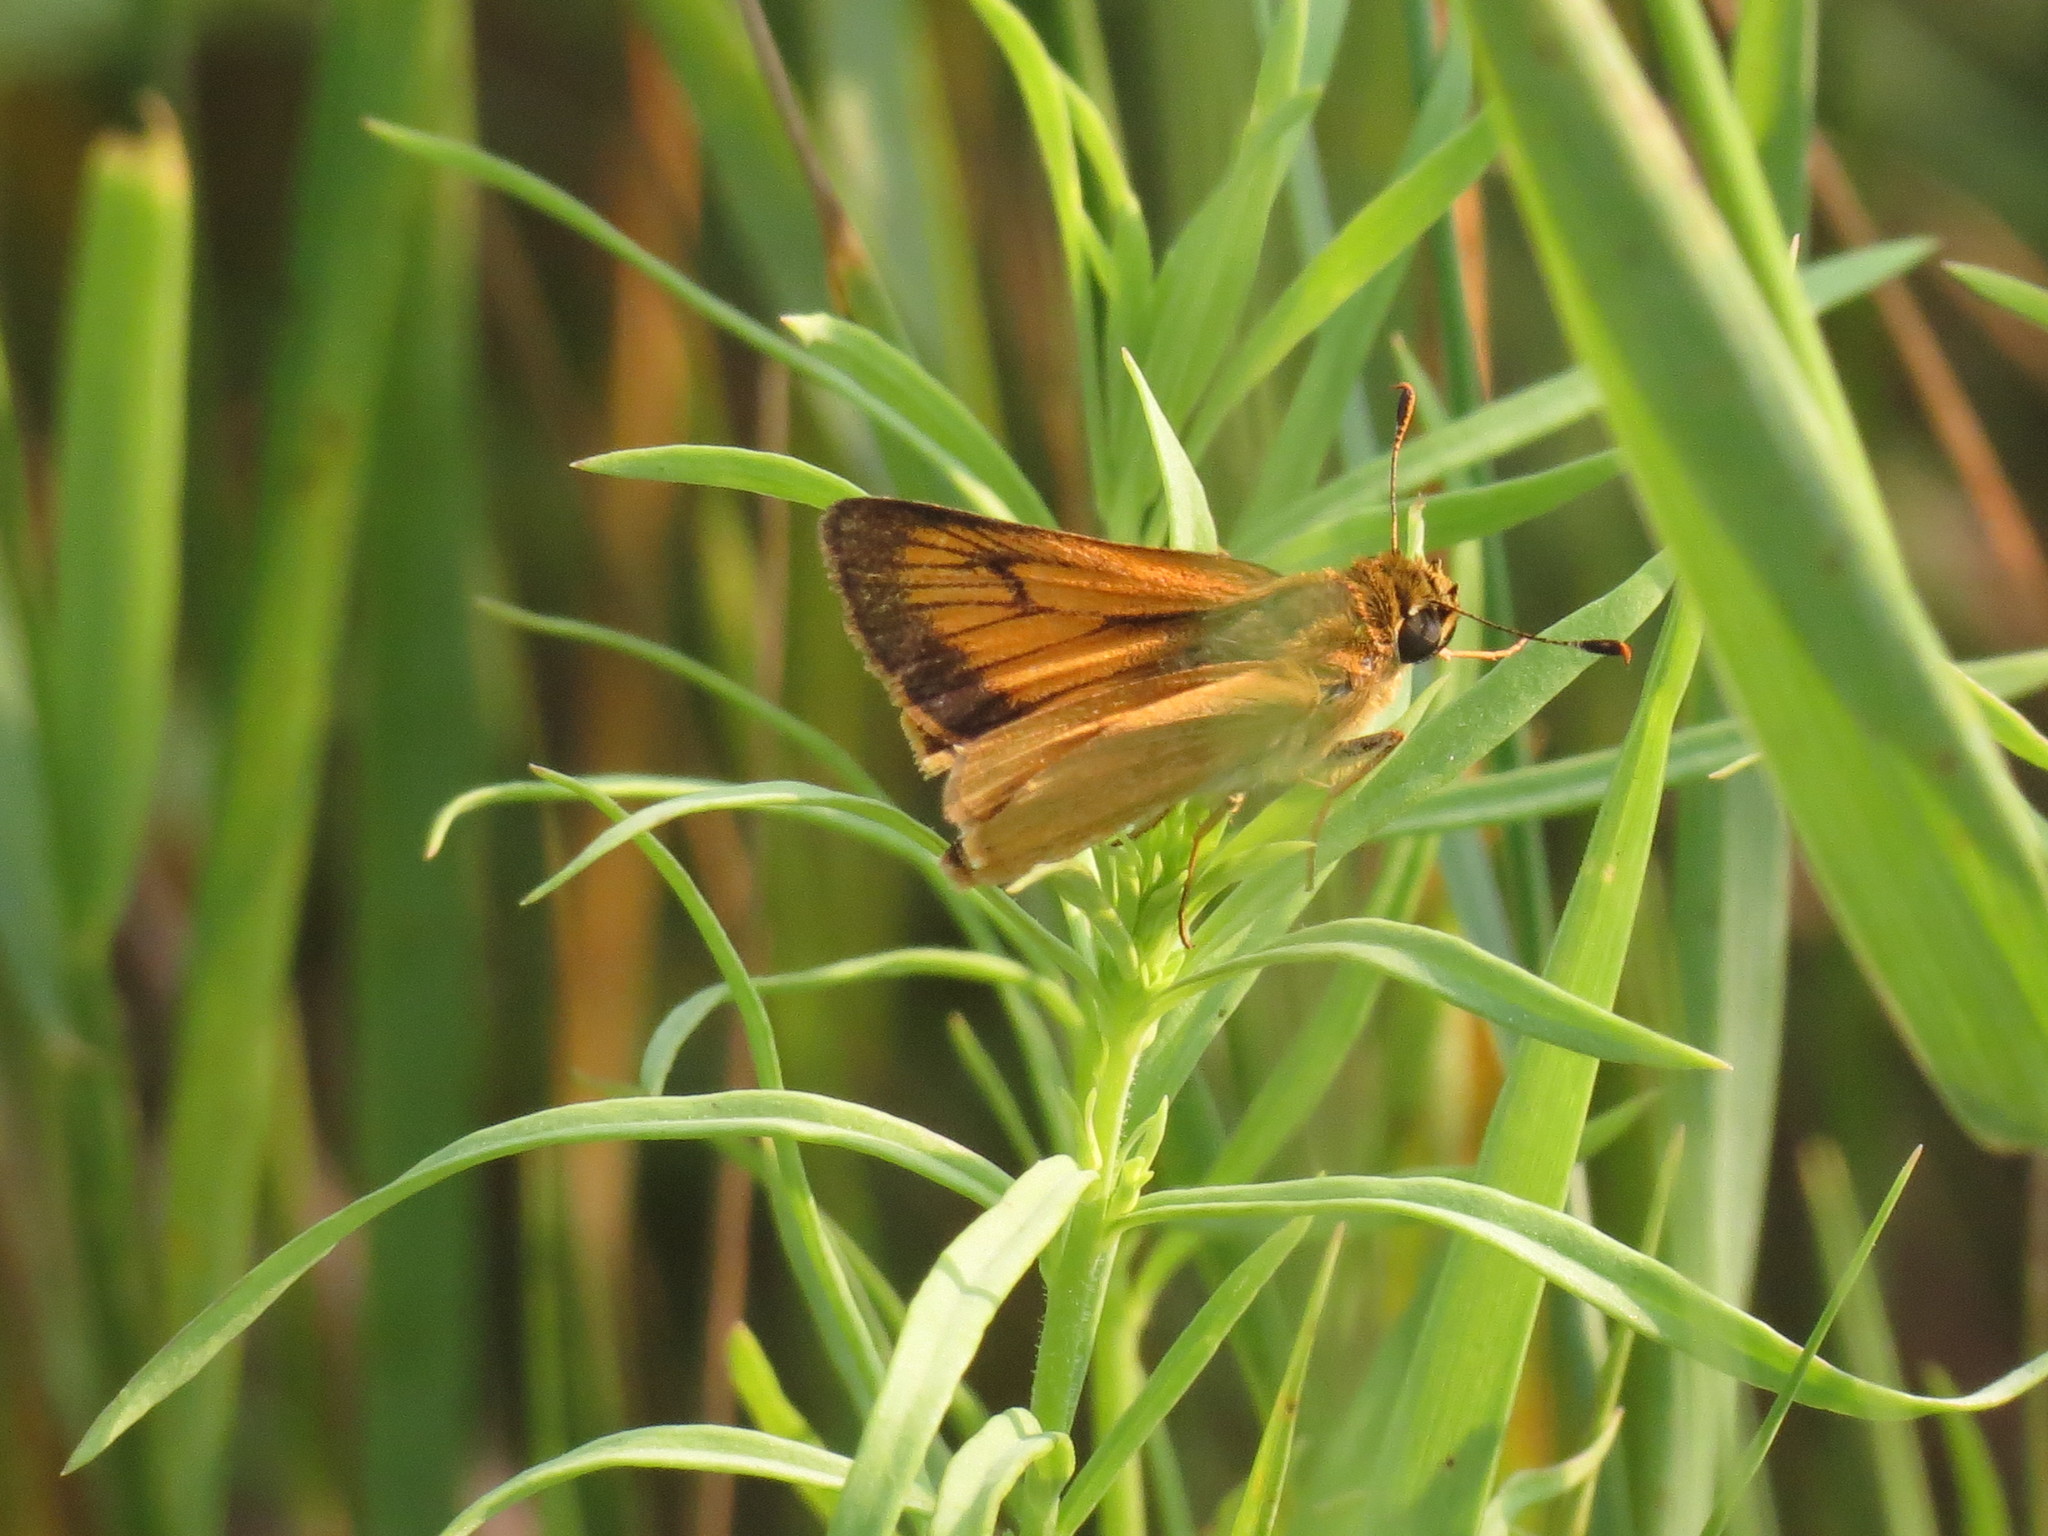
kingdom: Animalia
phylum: Arthropoda
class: Insecta
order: Lepidoptera
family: Hesperiidae
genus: Atrytone
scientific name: Atrytone delaware
